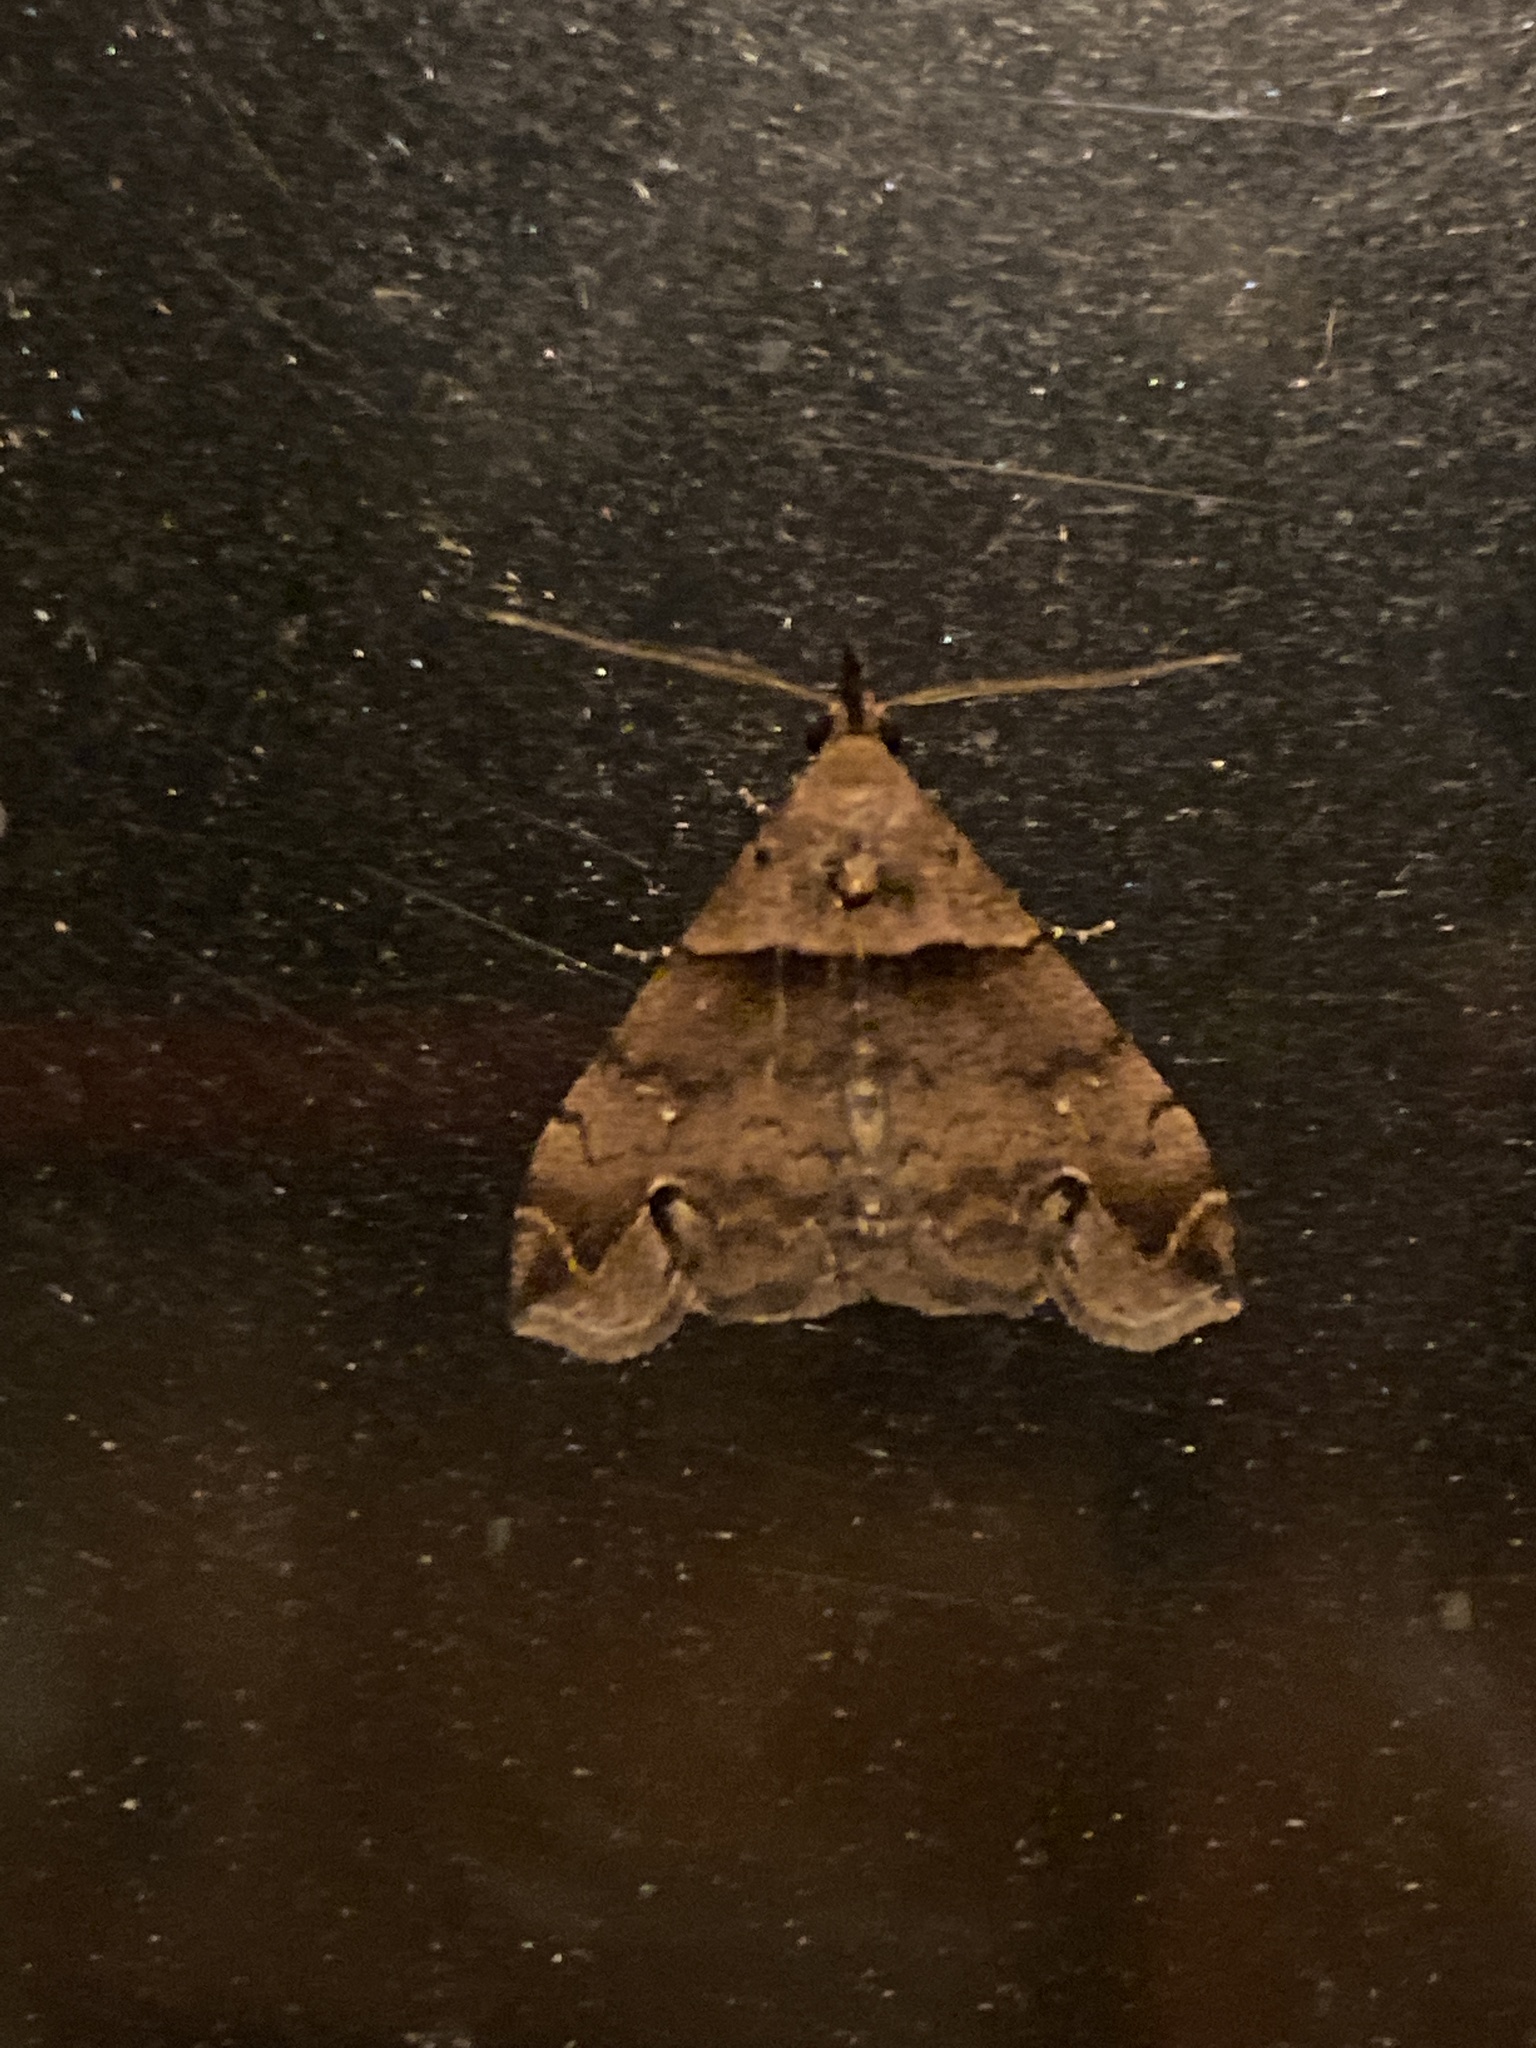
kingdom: Animalia
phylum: Arthropoda
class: Insecta
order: Lepidoptera
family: Erebidae
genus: Lascoria
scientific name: Lascoria ambigualis
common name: Ambiguous moth
